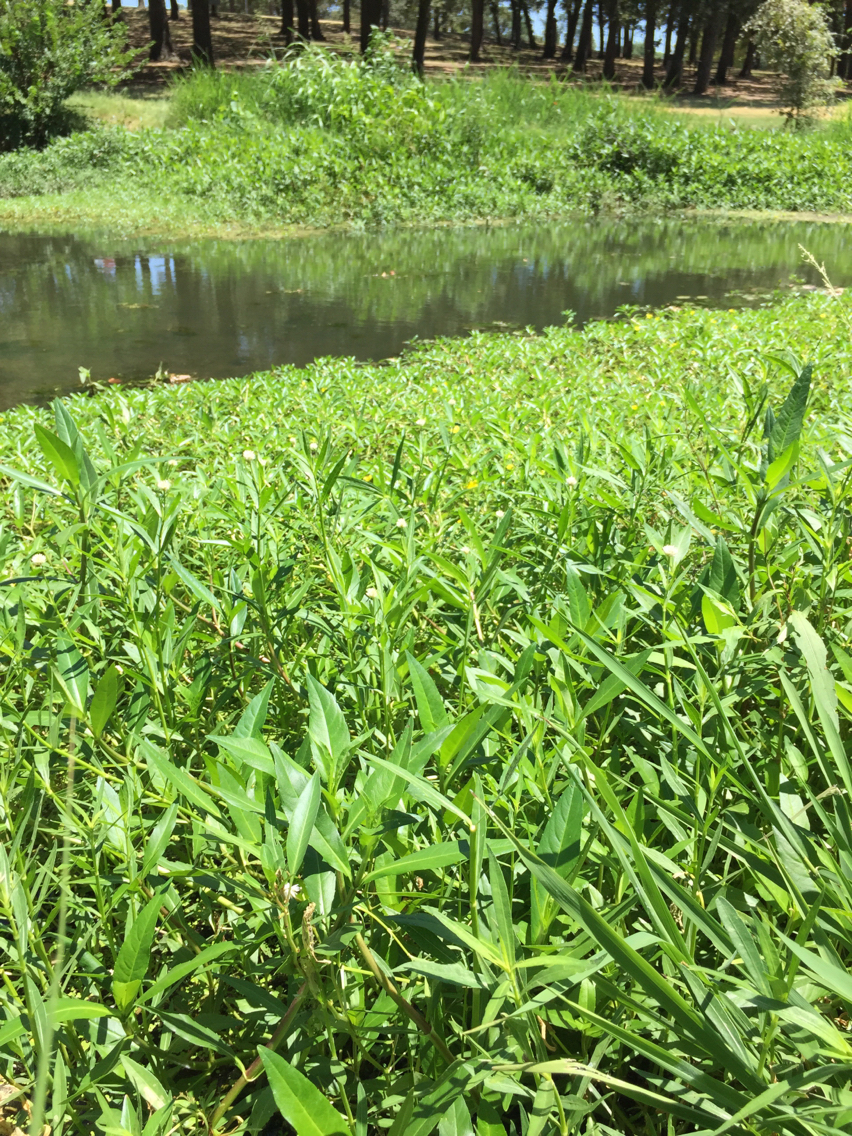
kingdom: Plantae
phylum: Tracheophyta
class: Magnoliopsida
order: Caryophyllales
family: Amaranthaceae
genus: Alternanthera
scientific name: Alternanthera philoxeroides
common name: Alligatorweed
